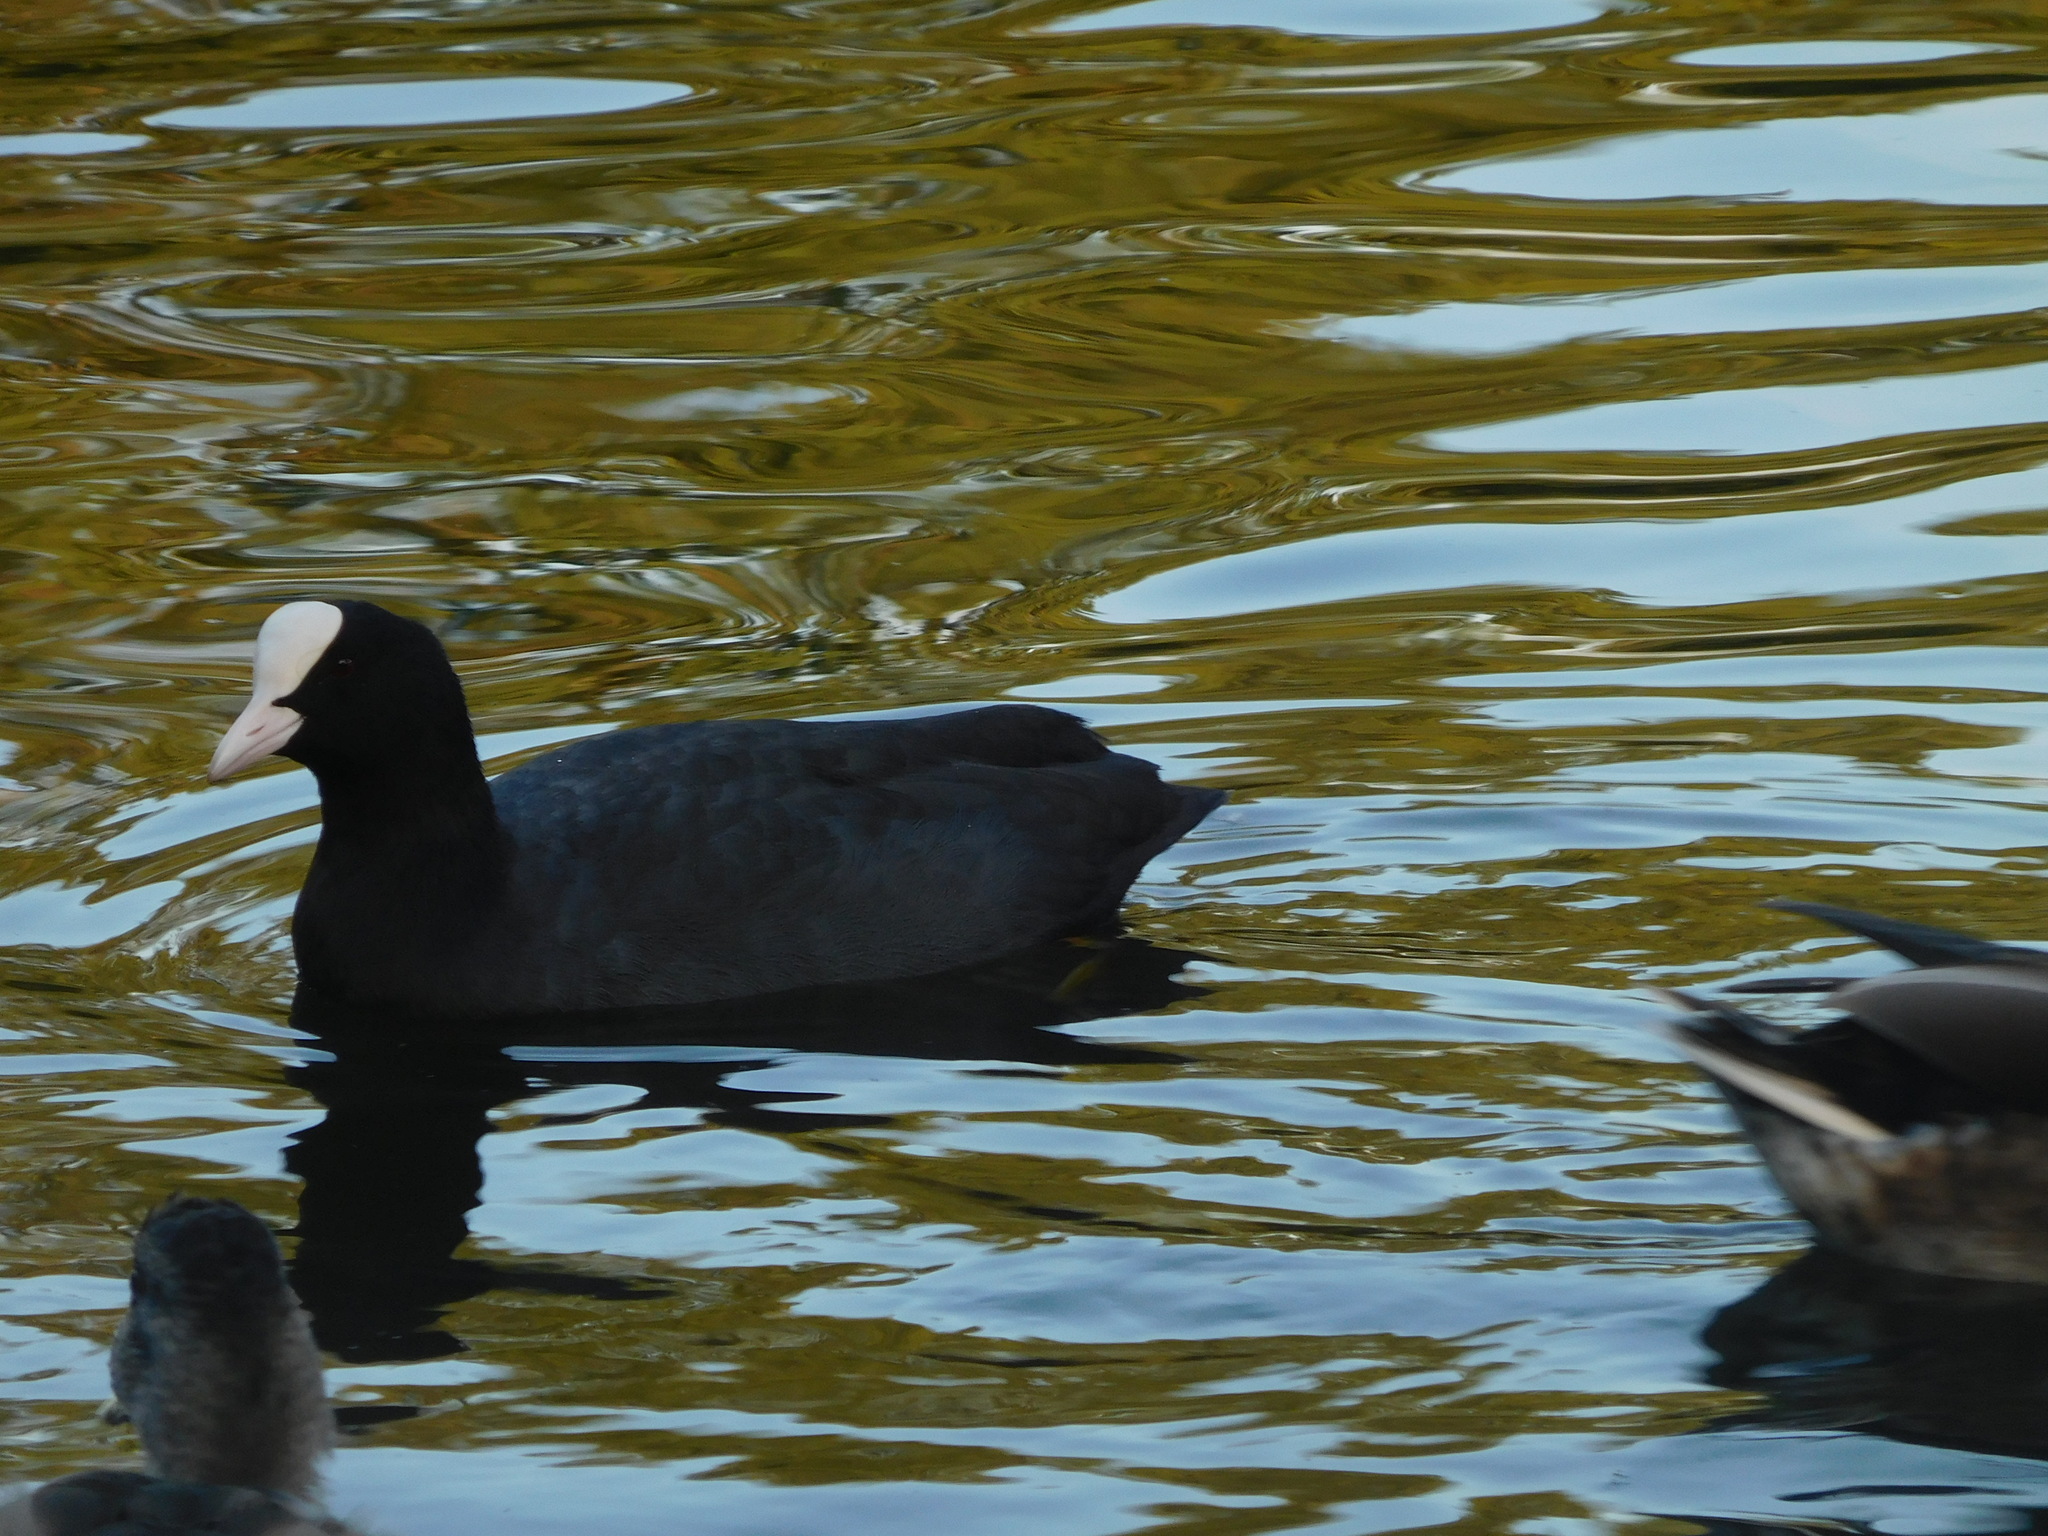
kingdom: Animalia
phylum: Chordata
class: Aves
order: Gruiformes
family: Rallidae
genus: Fulica
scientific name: Fulica atra
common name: Eurasian coot
